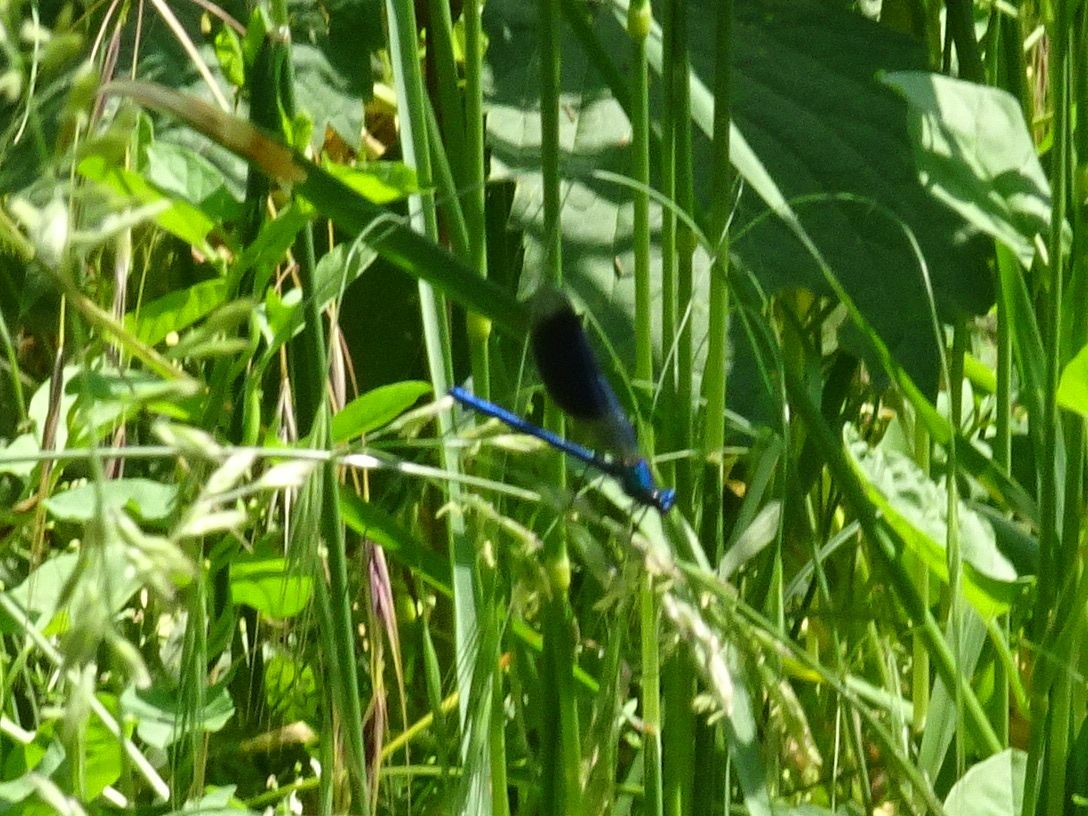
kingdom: Animalia
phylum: Arthropoda
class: Insecta
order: Odonata
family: Calopterygidae
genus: Calopteryx
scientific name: Calopteryx splendens
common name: Banded demoiselle
